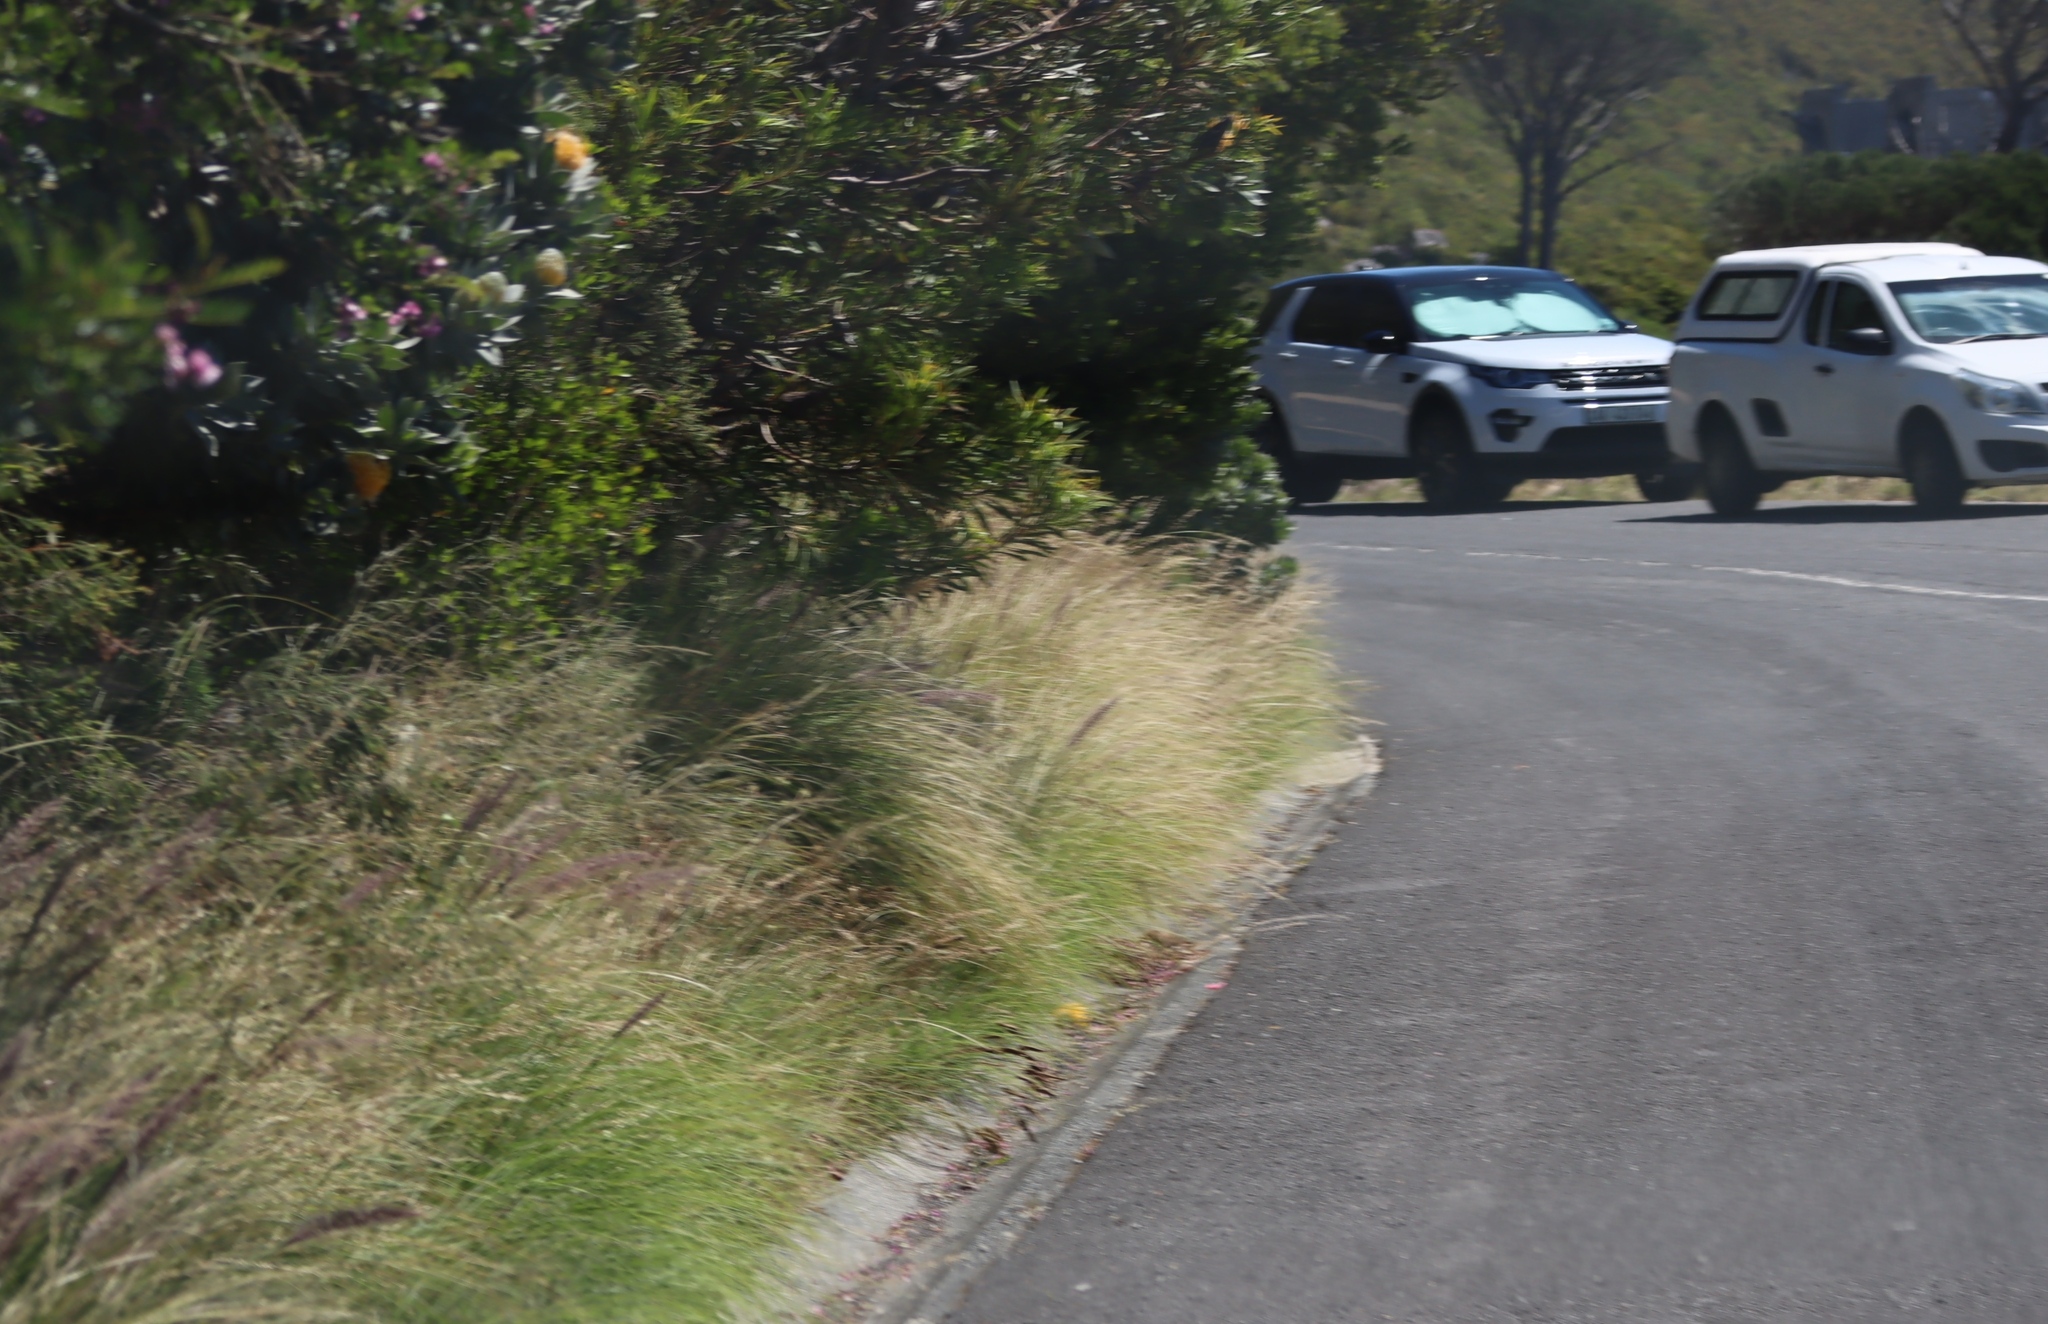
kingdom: Plantae
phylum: Tracheophyta
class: Liliopsida
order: Poales
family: Poaceae
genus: Cenchrus
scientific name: Cenchrus setaceus
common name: Crimson fountaingrass
